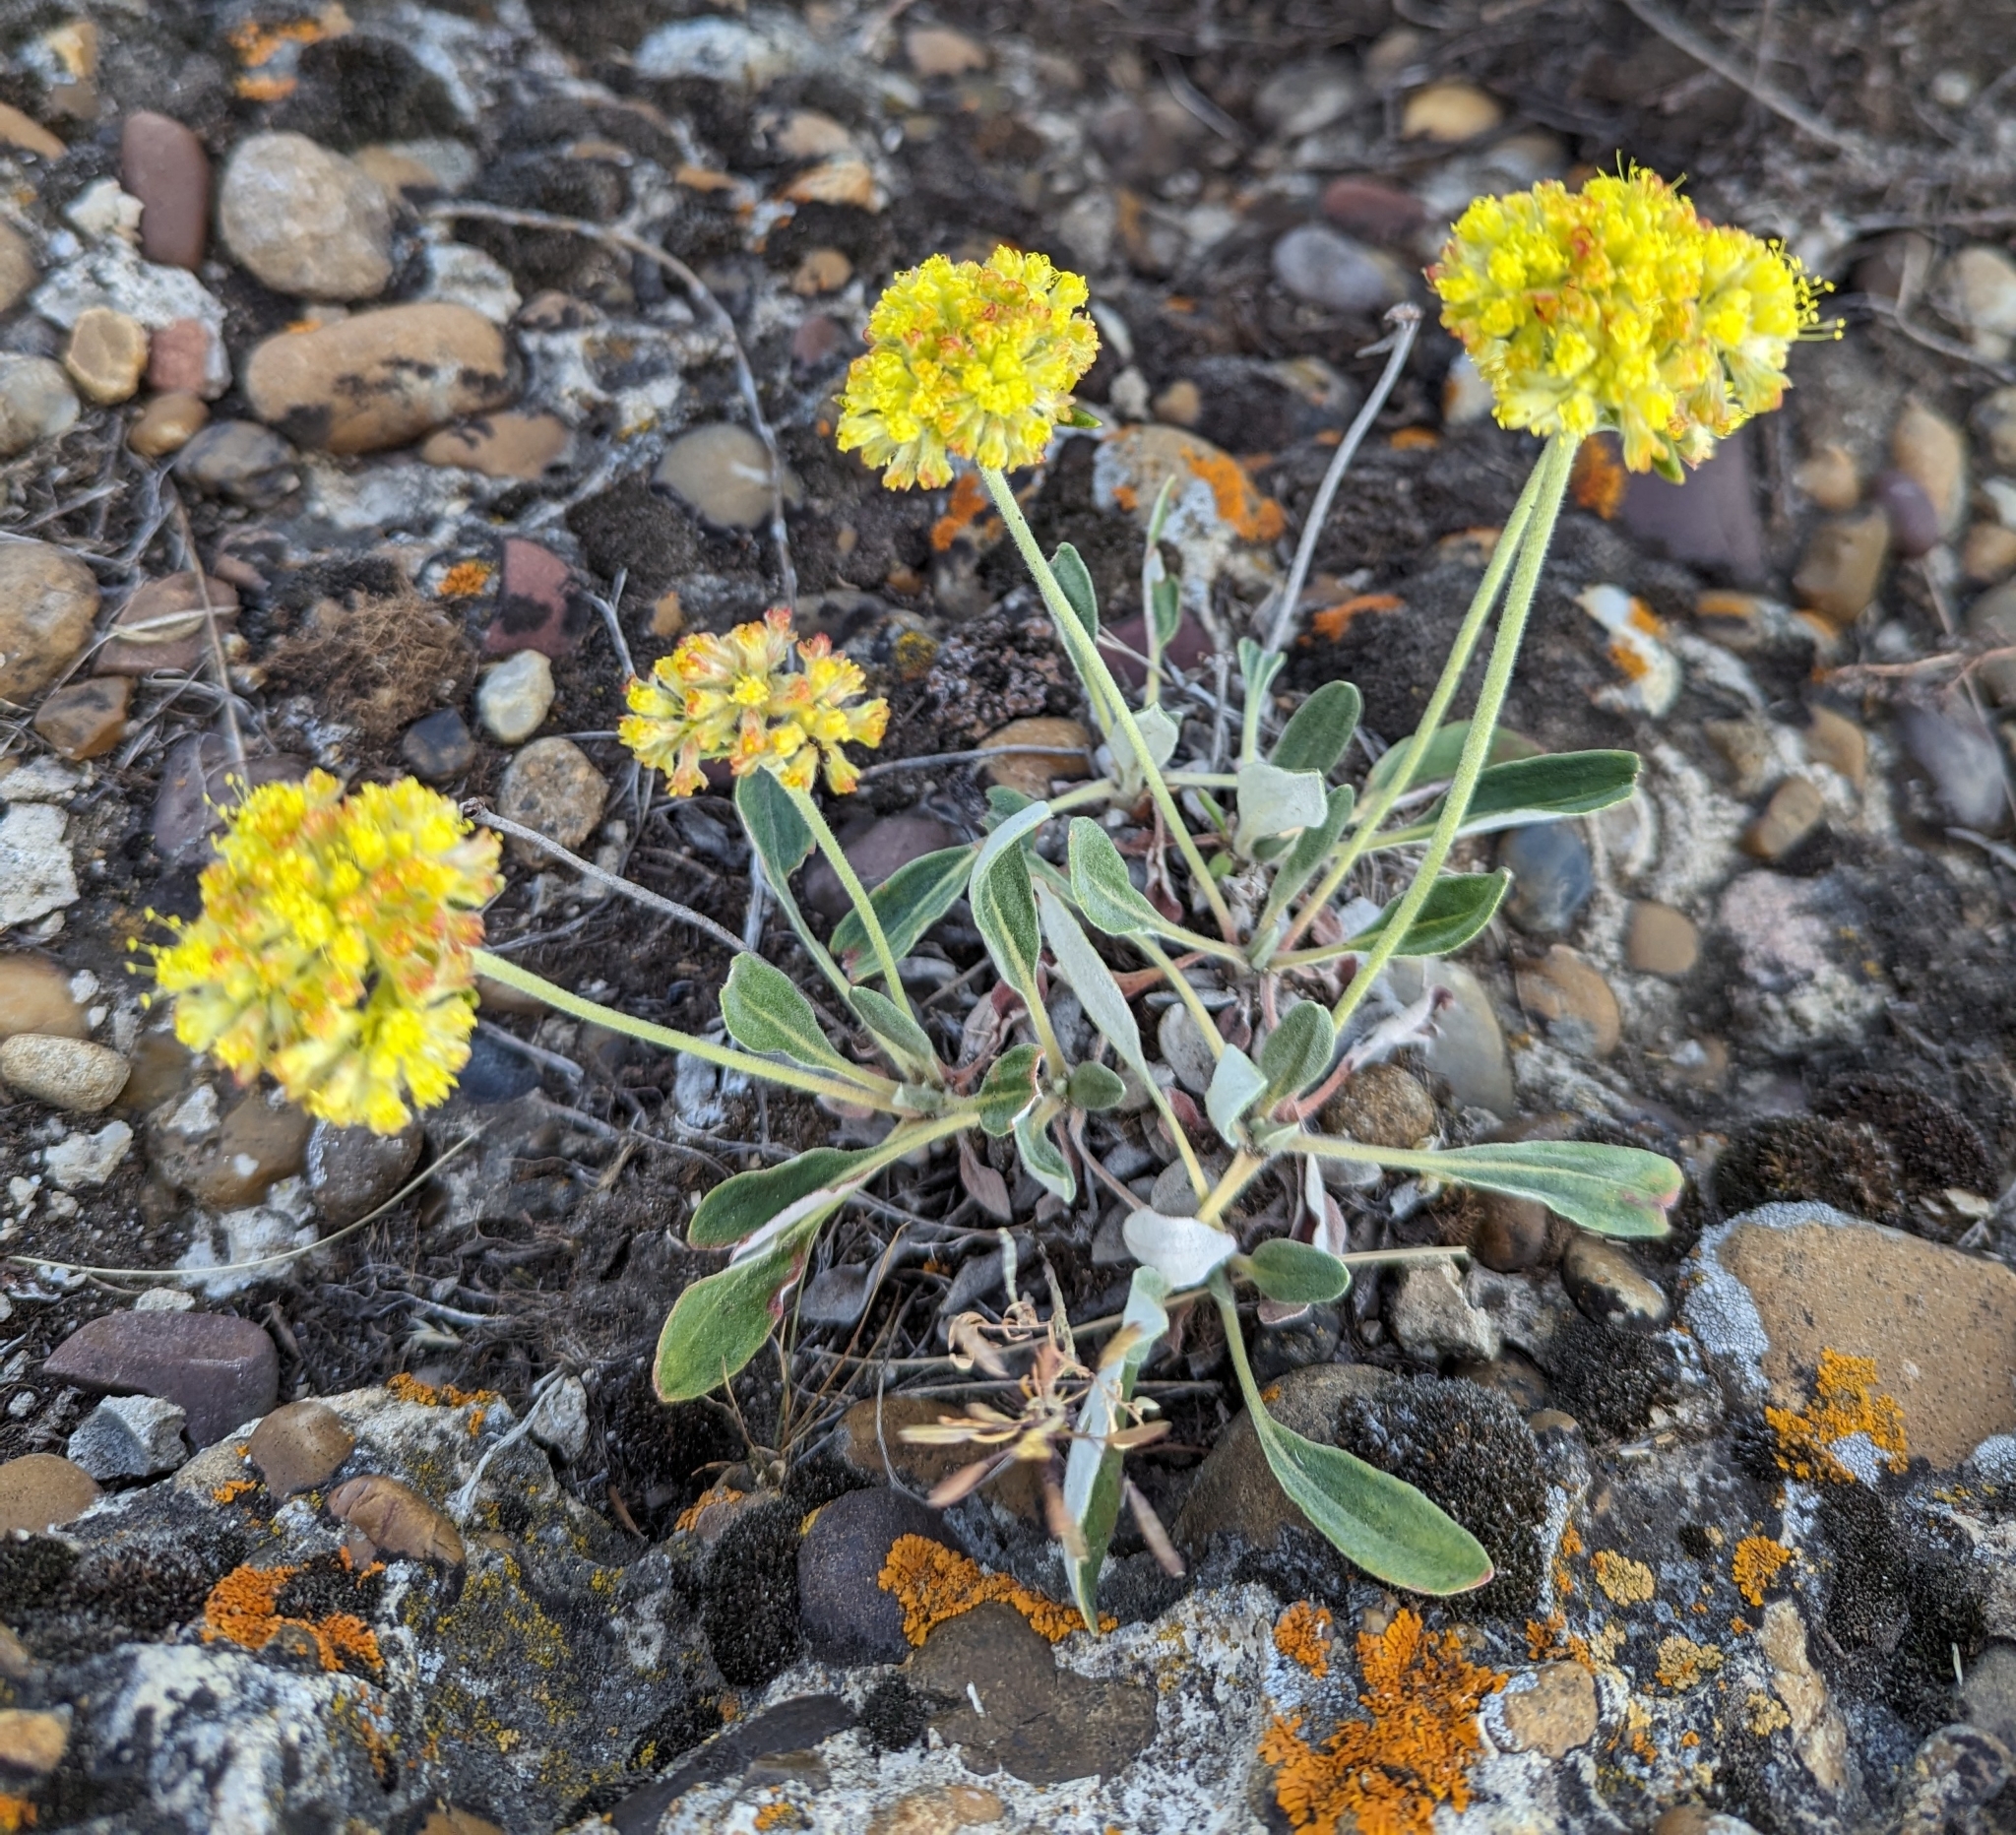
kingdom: Plantae
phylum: Tracheophyta
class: Magnoliopsida
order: Caryophyllales
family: Polygonaceae
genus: Eriogonum
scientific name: Eriogonum flavum
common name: Alpine golden wild buckwheat
